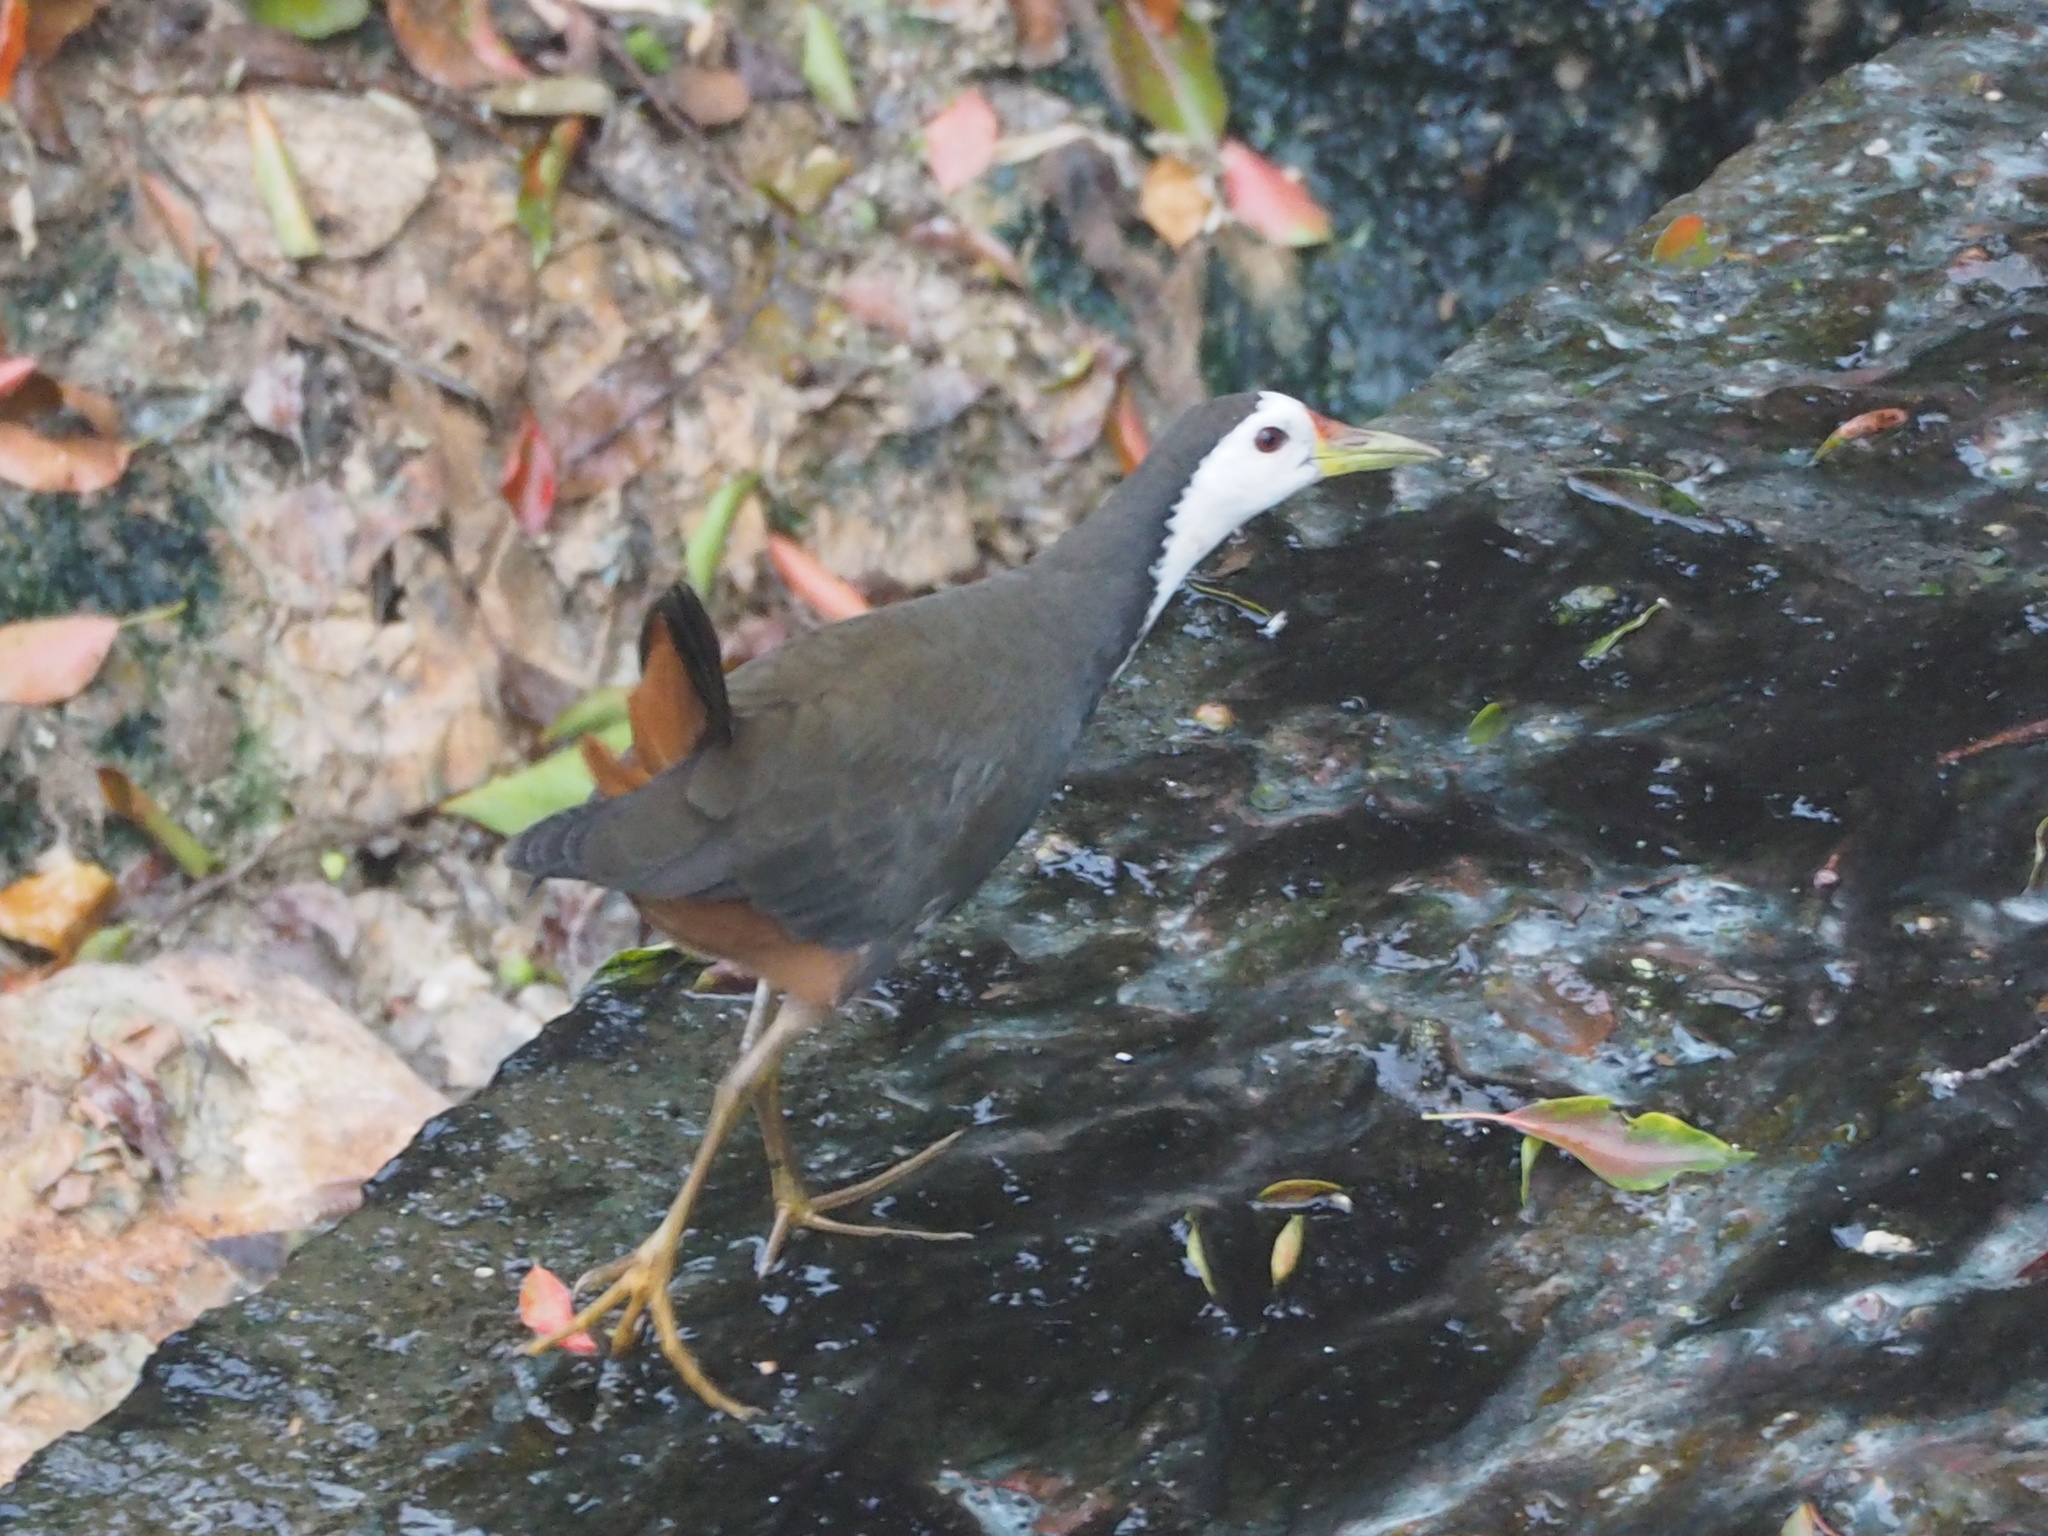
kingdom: Animalia
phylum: Chordata
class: Aves
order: Gruiformes
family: Rallidae
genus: Amaurornis
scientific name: Amaurornis phoenicurus
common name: White-breasted waterhen
